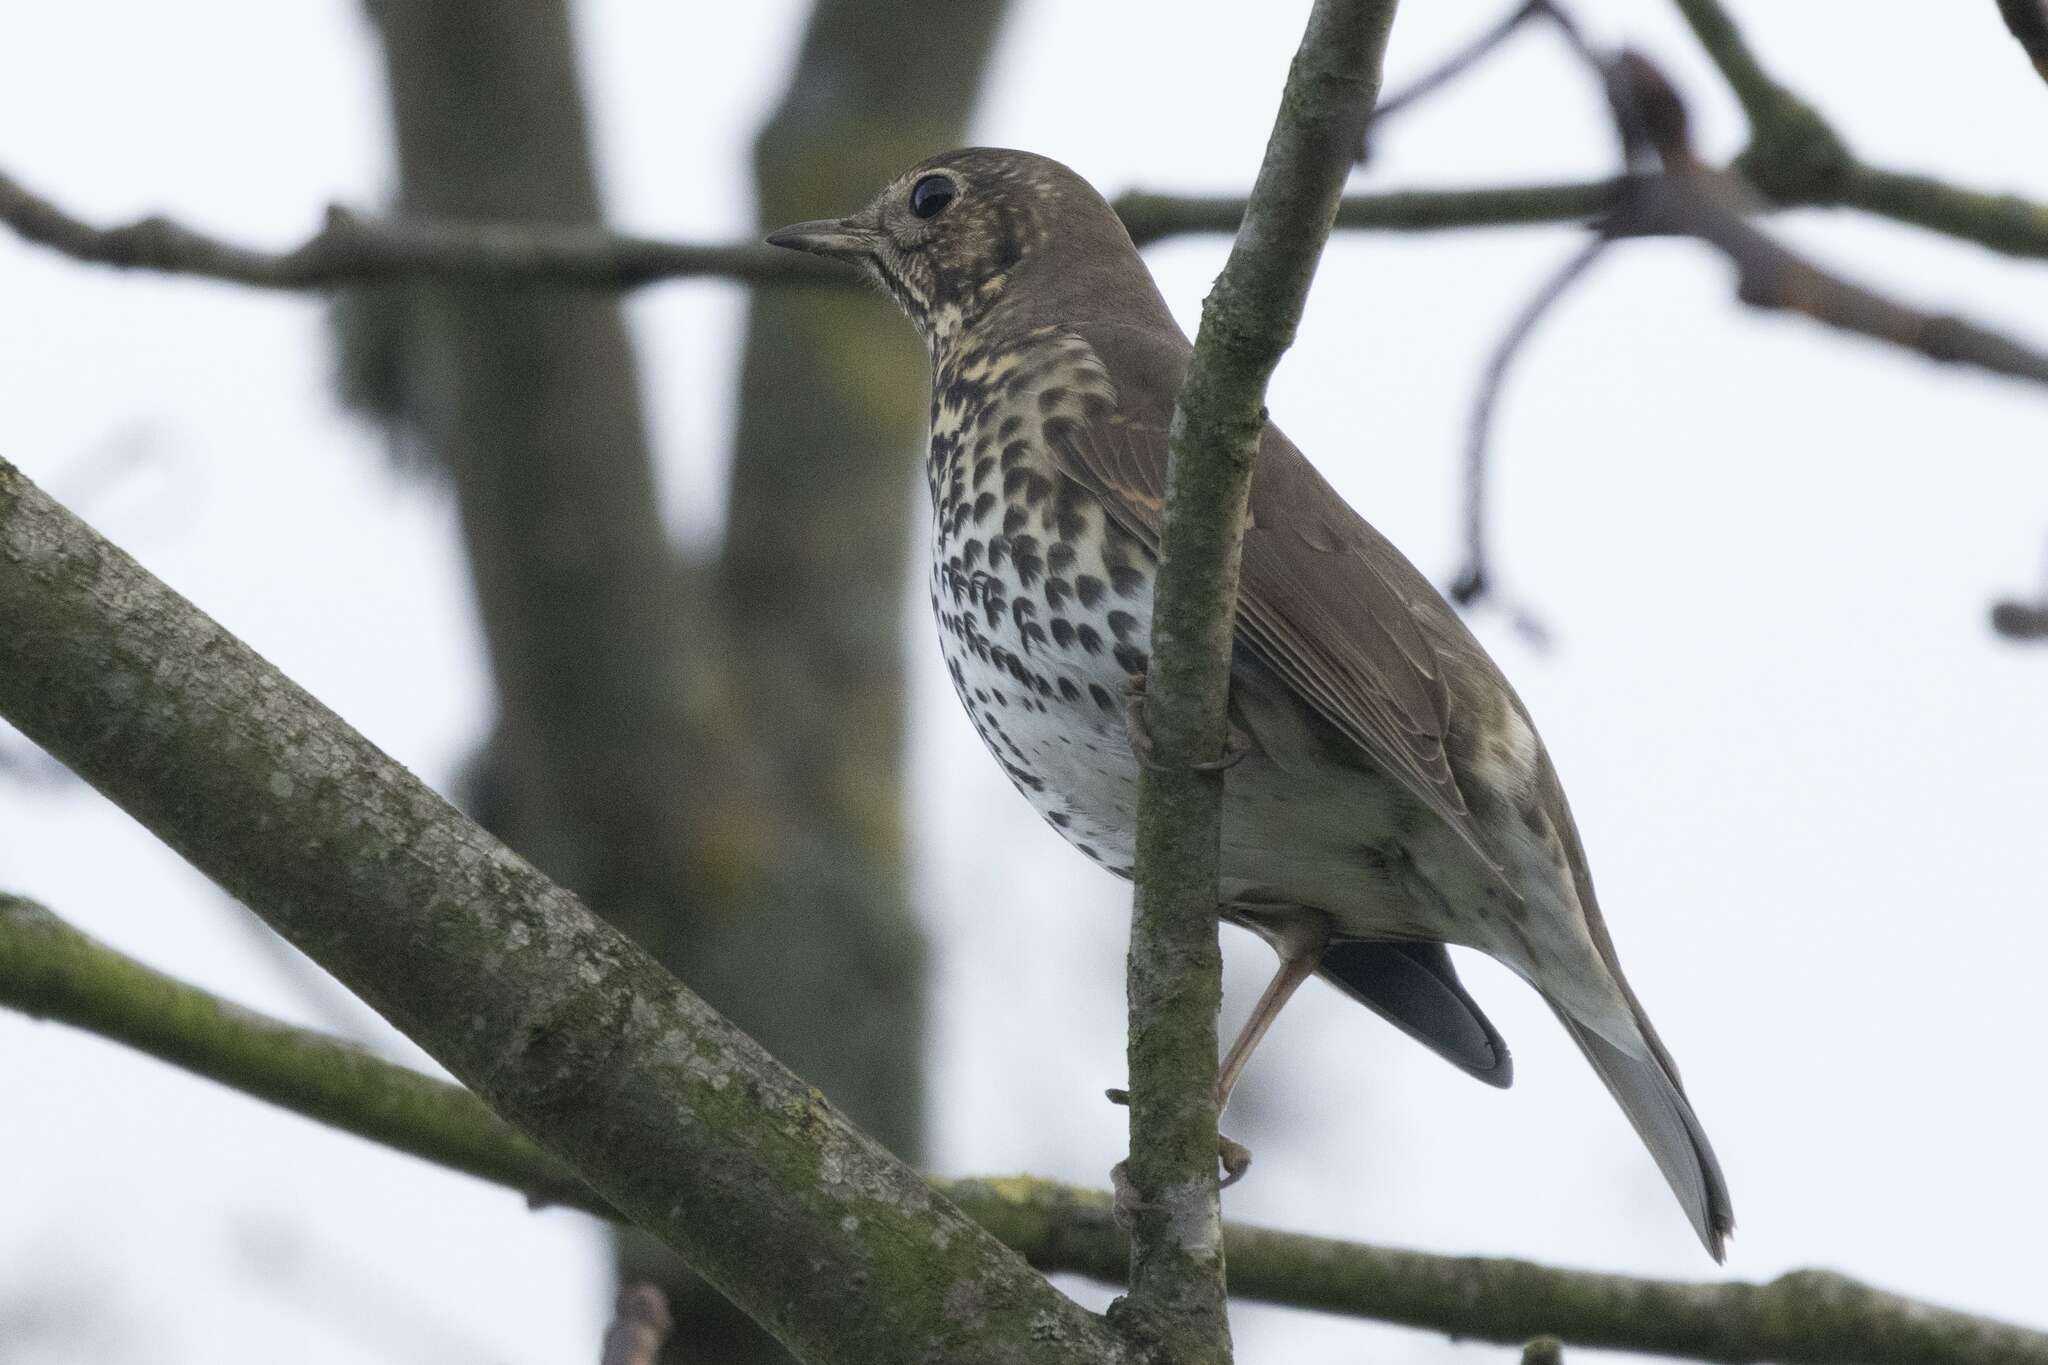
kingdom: Animalia
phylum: Chordata
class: Aves
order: Passeriformes
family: Turdidae
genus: Turdus
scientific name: Turdus philomelos
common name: Song thrush
